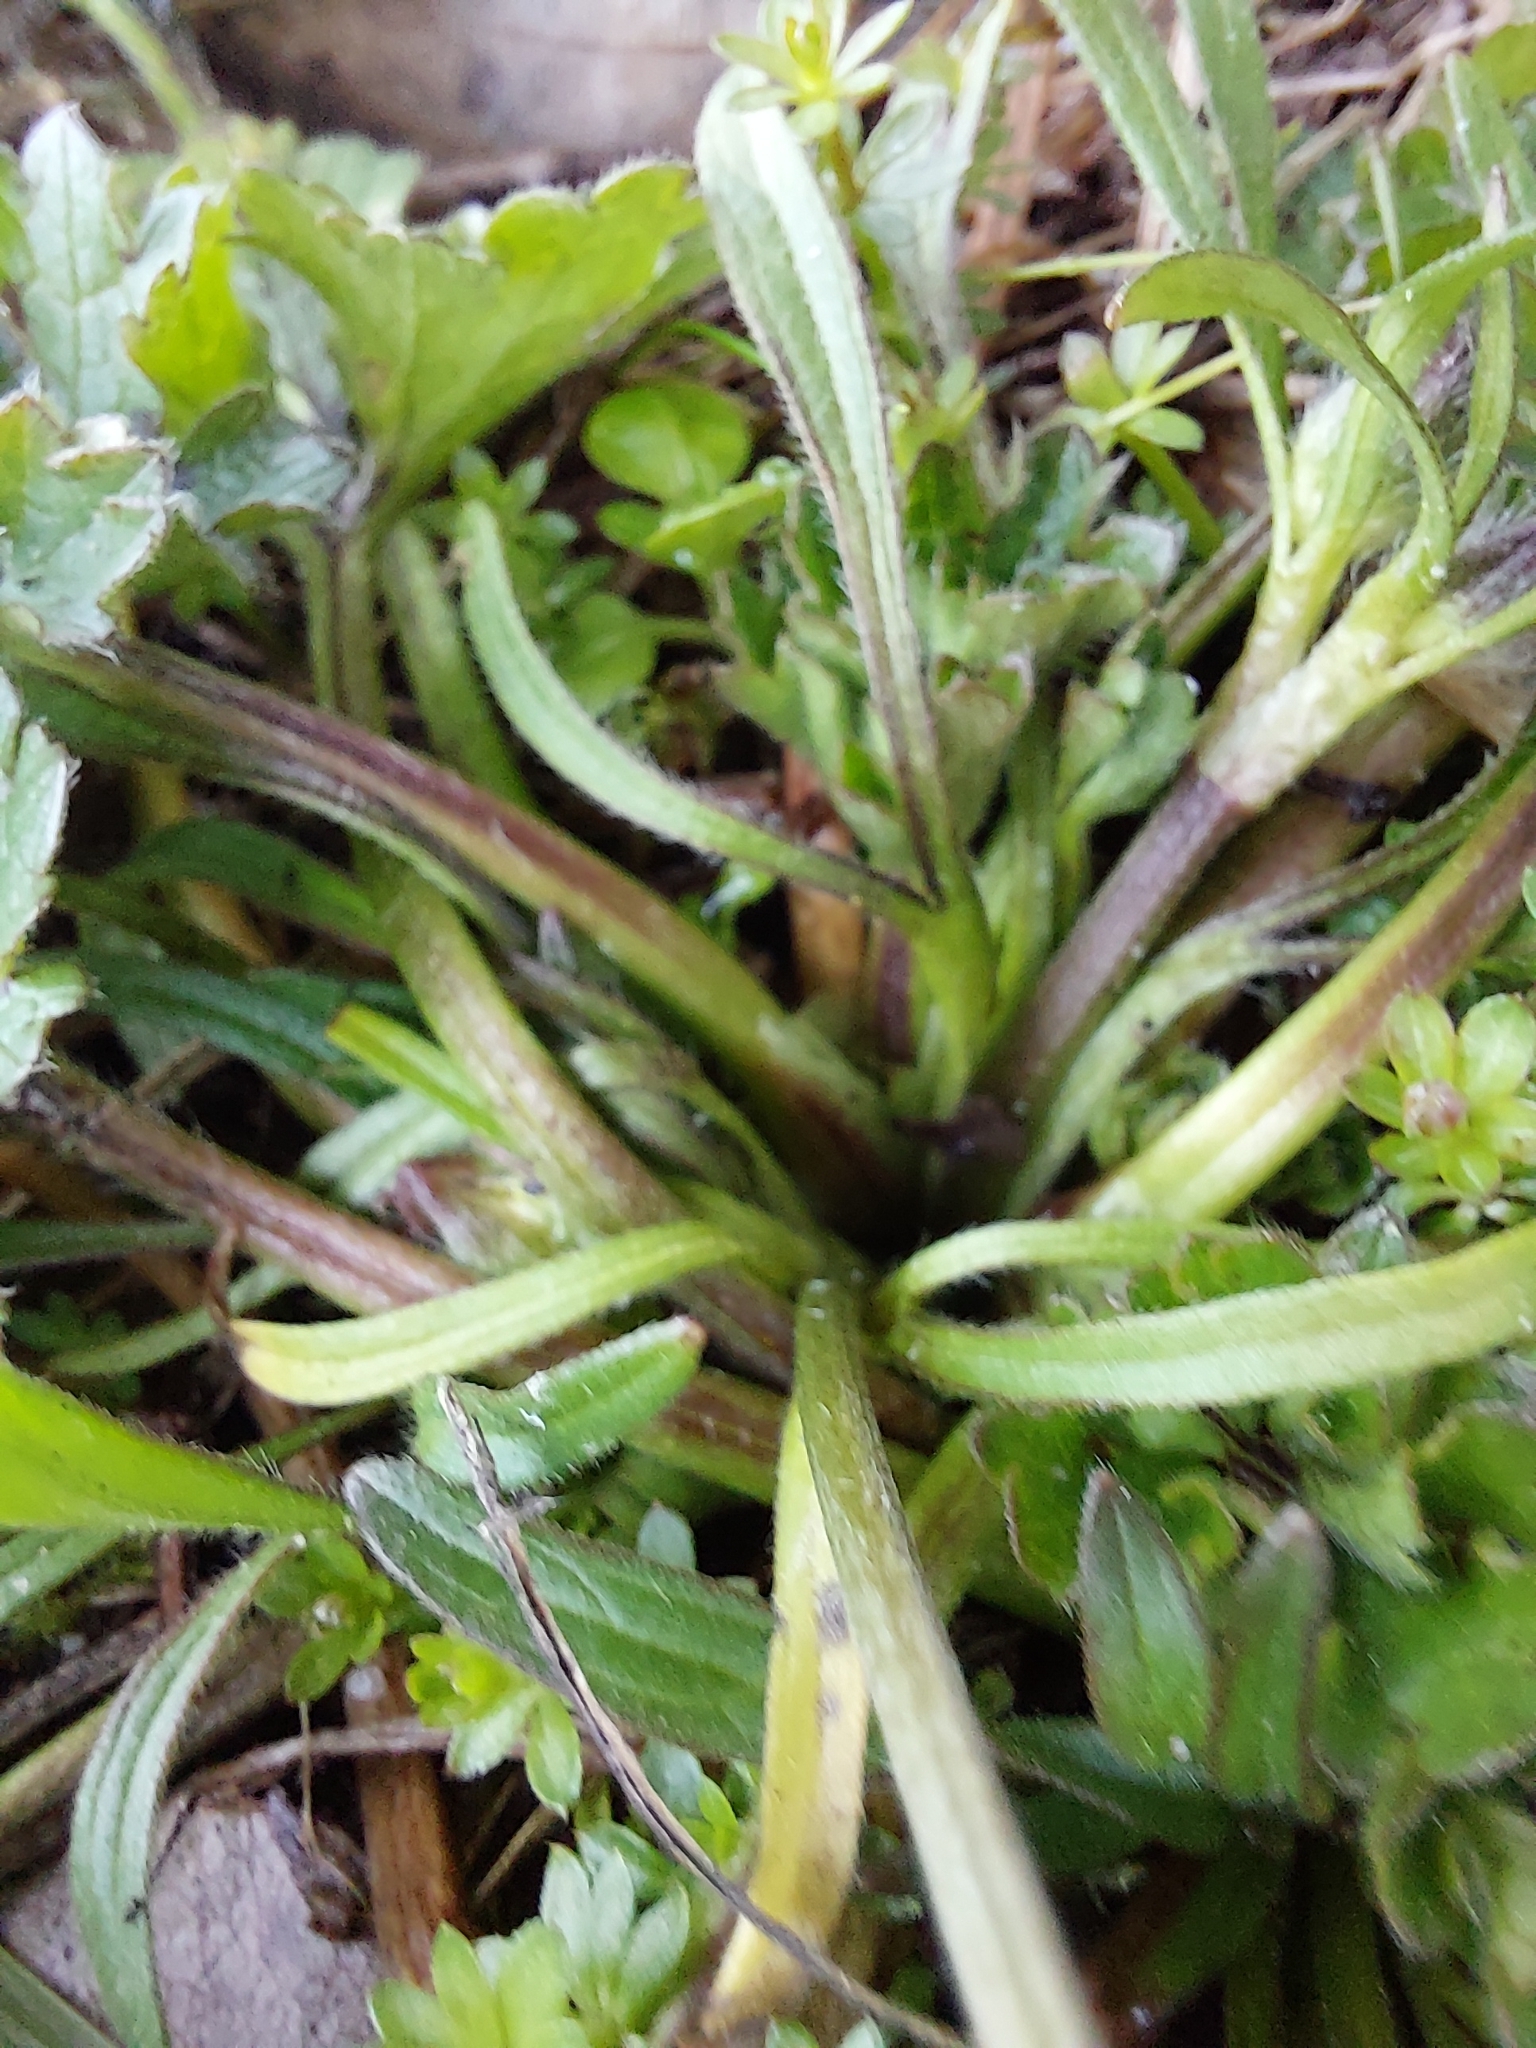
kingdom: Plantae
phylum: Tracheophyta
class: Magnoliopsida
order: Ranunculales
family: Ranunculaceae
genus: Ranunculus
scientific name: Ranunculus repens
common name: Creeping buttercup
